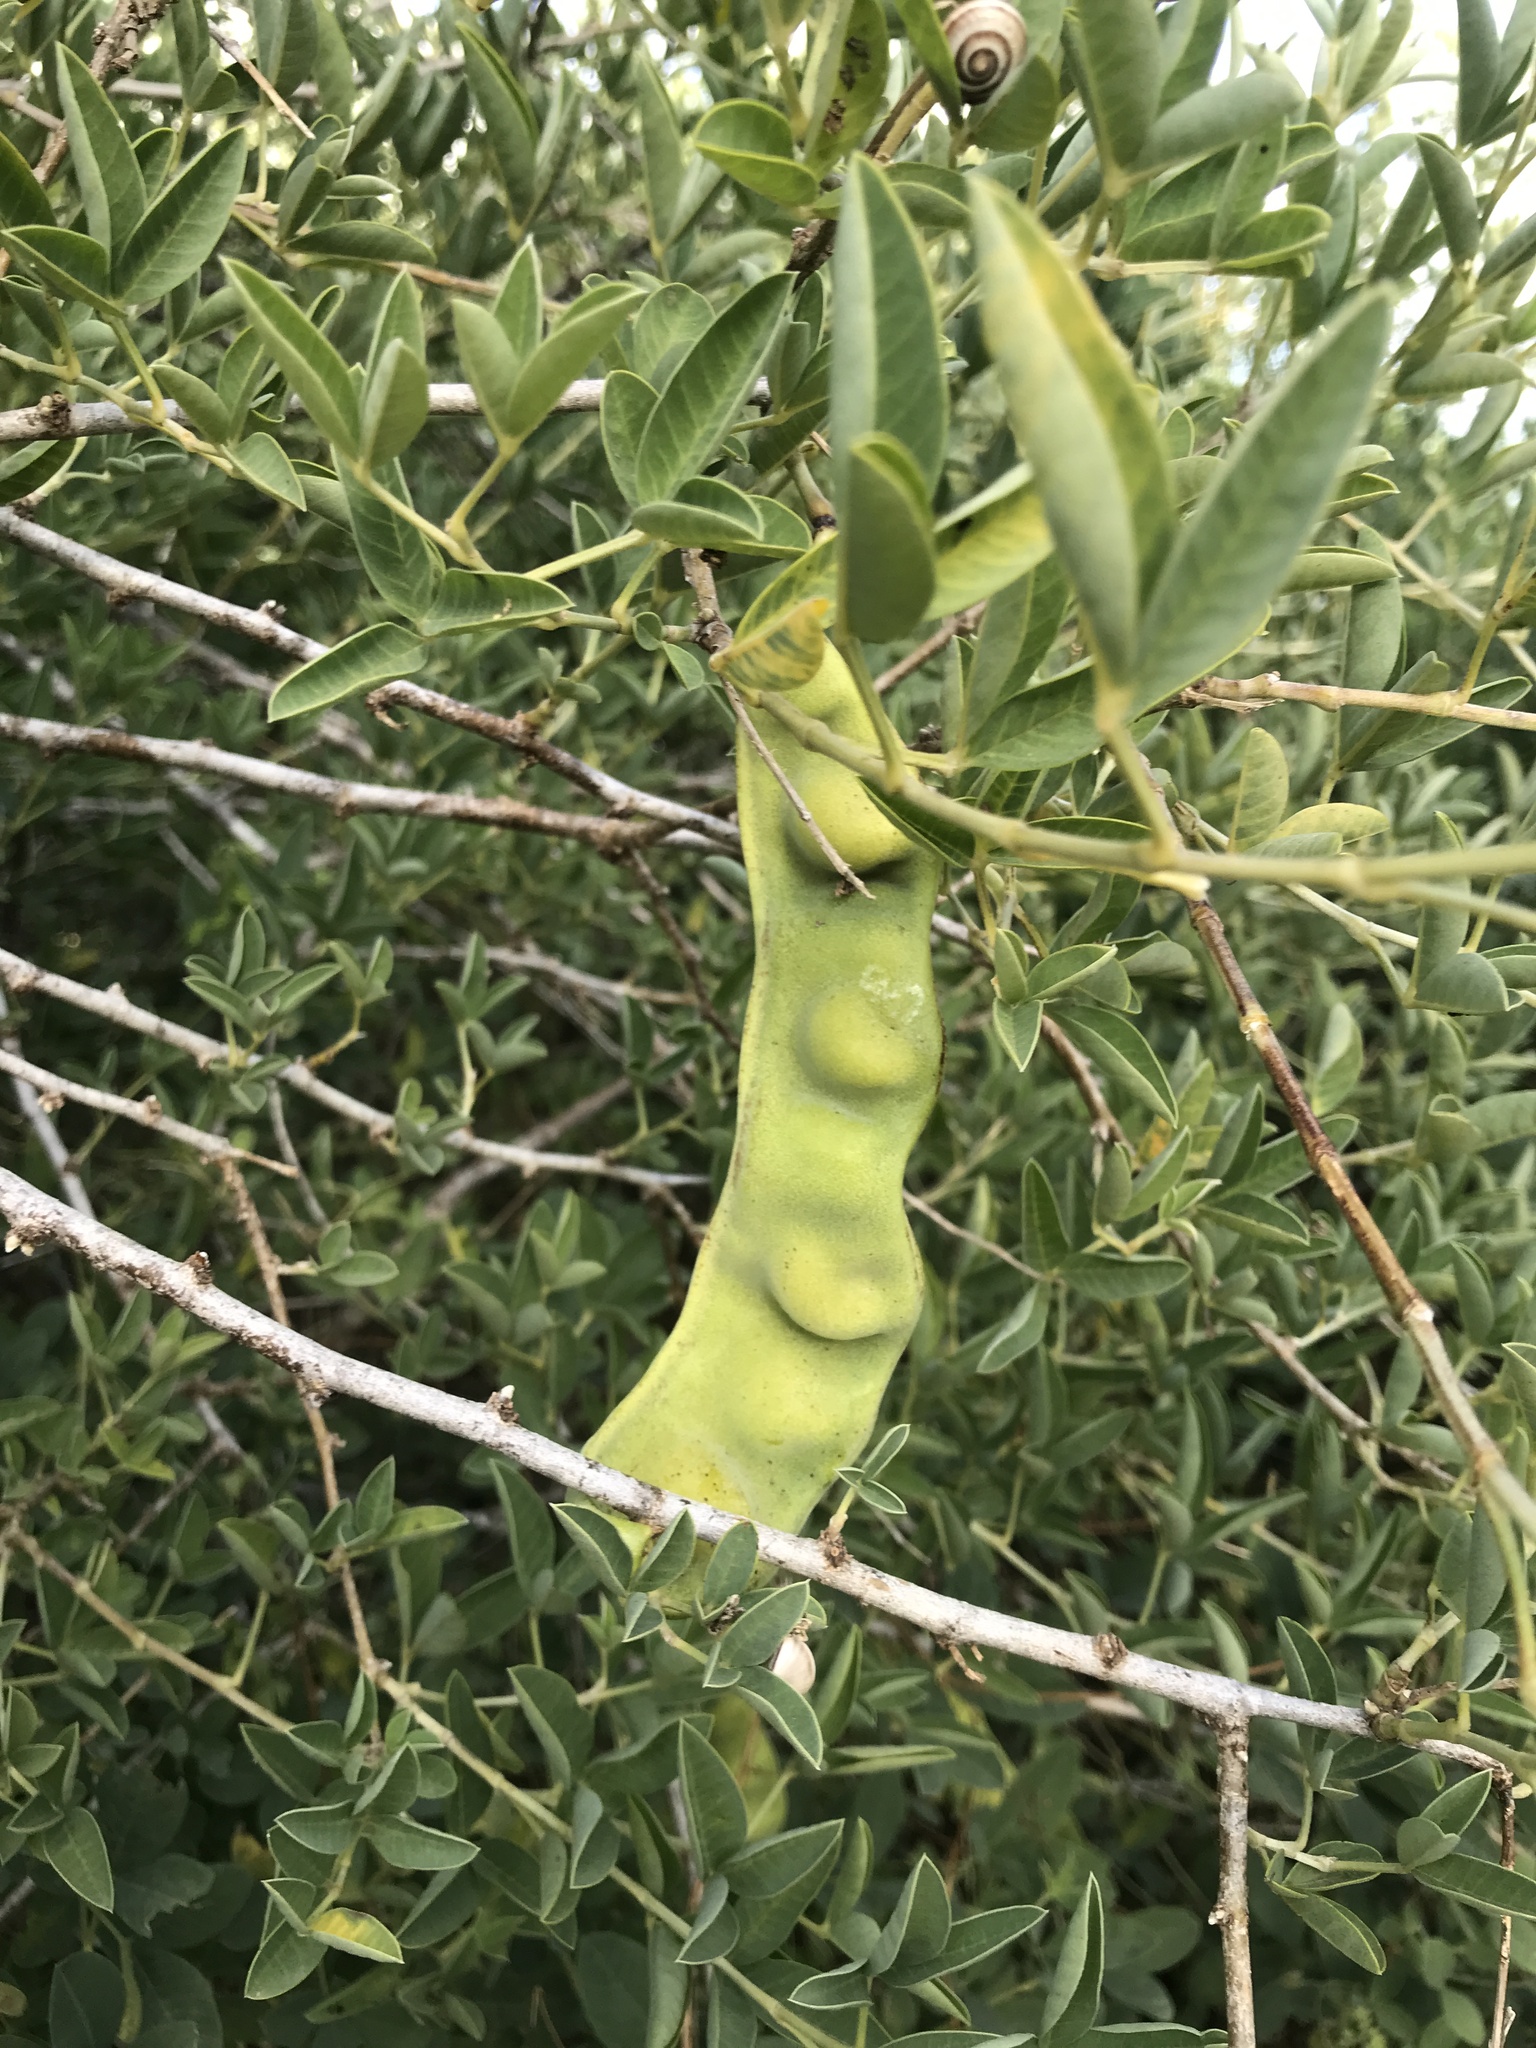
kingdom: Plantae
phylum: Tracheophyta
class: Magnoliopsida
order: Fabales
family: Fabaceae
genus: Anagyris
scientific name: Anagyris foetida
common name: Stinking bean trefoil
